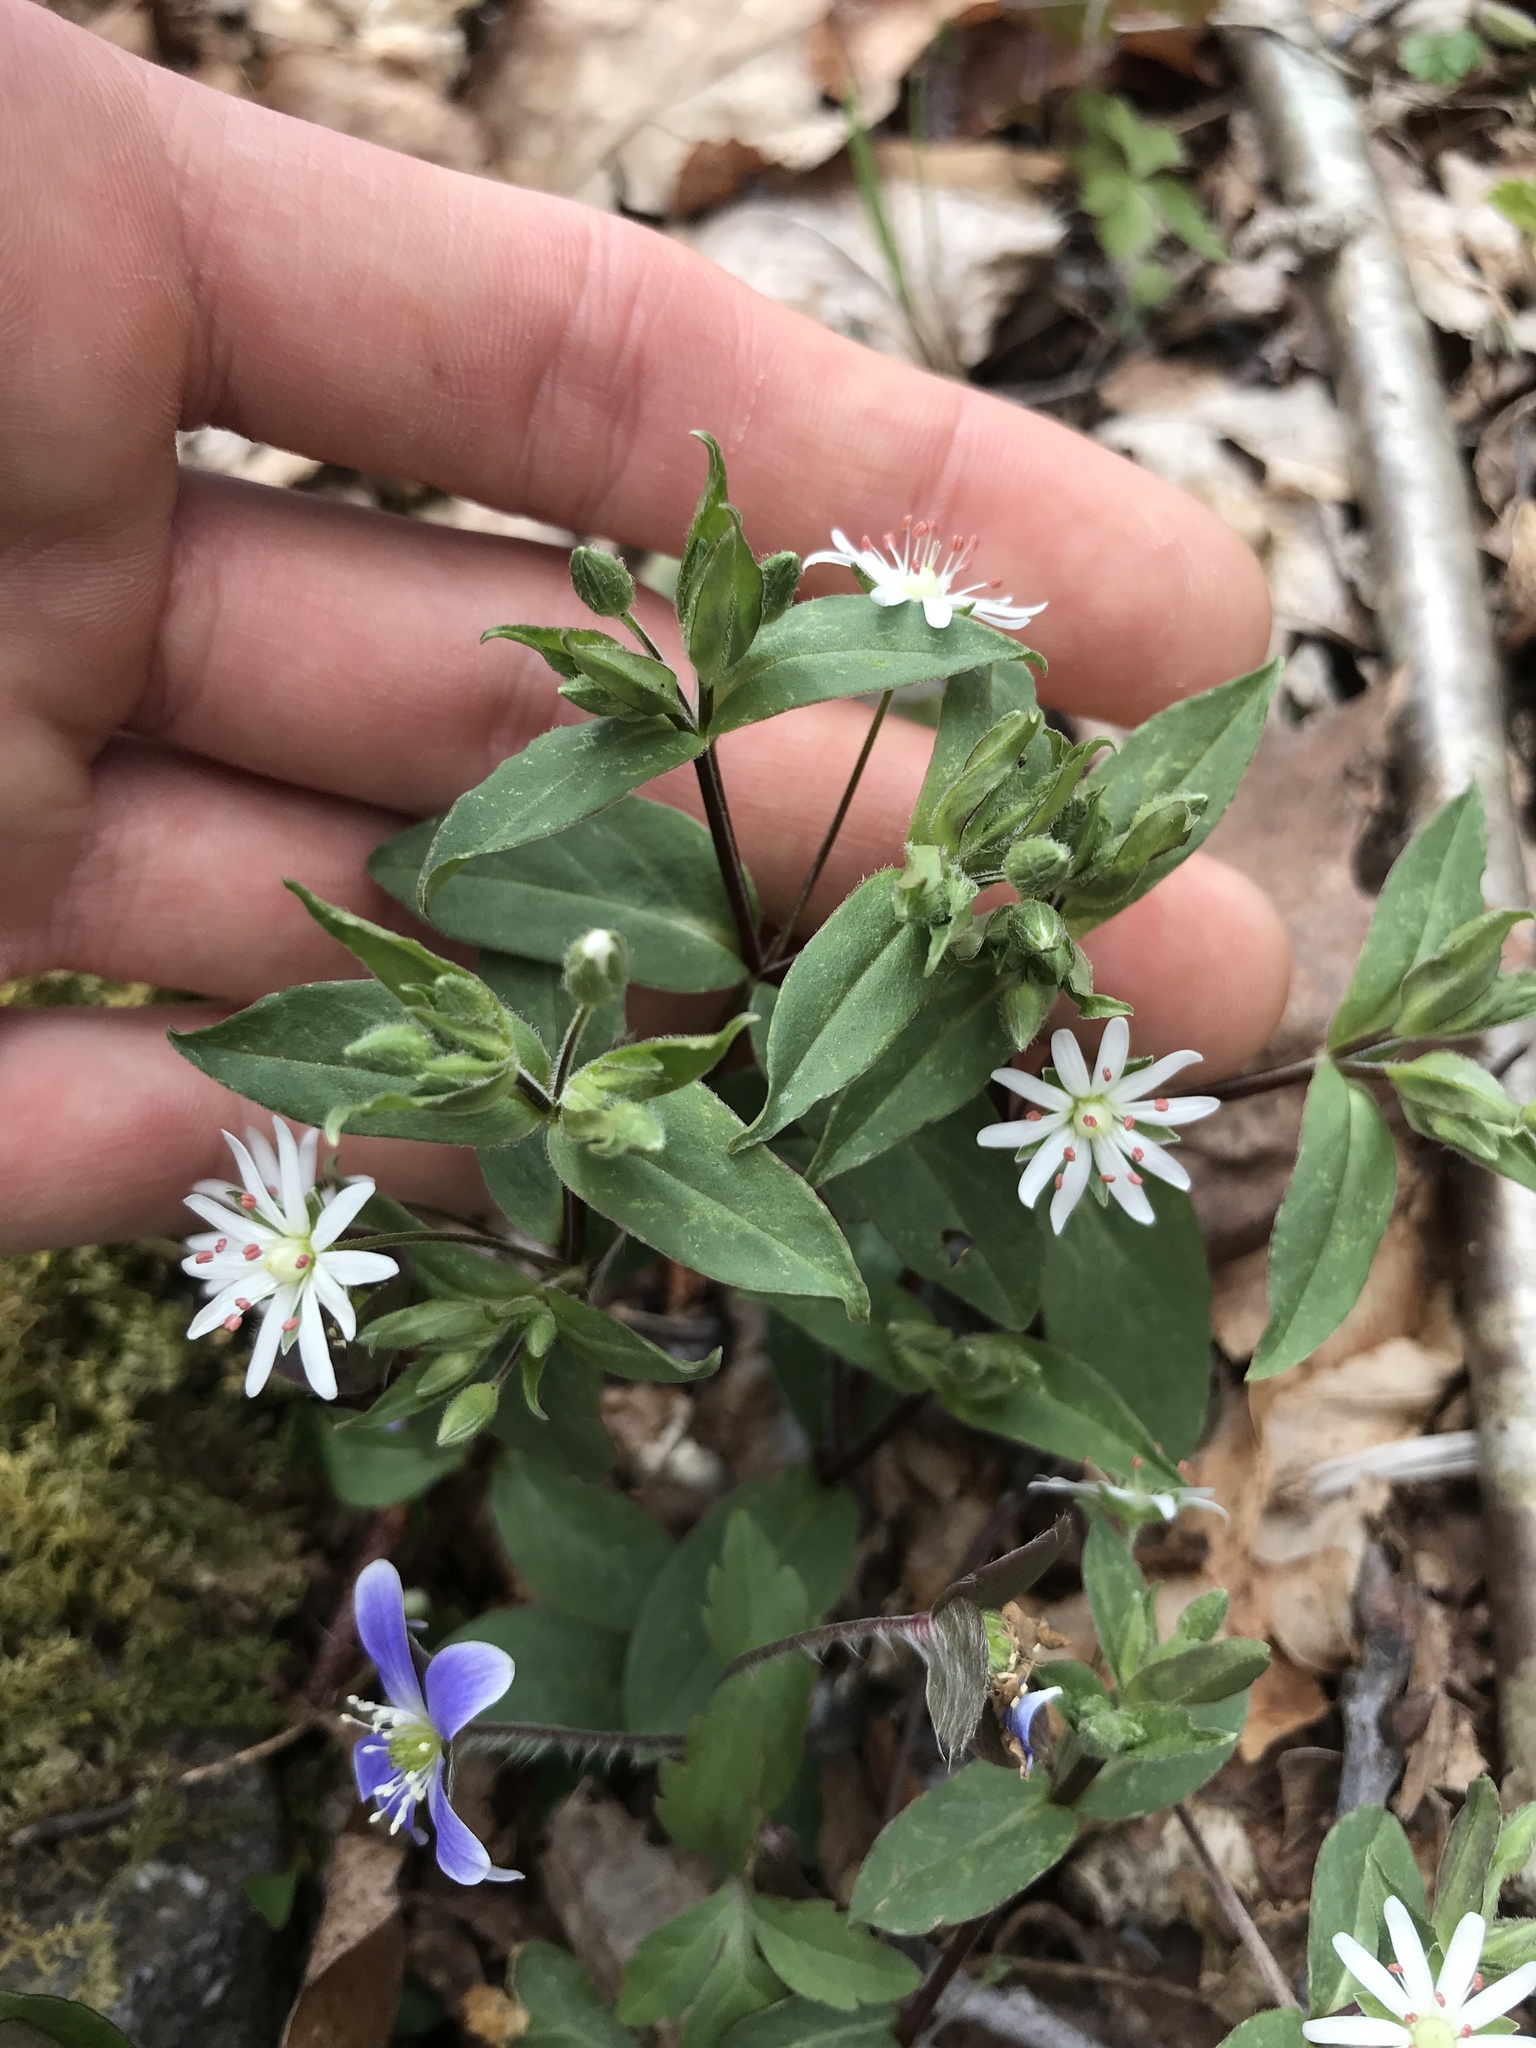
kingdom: Plantae
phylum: Tracheophyta
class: Magnoliopsida
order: Caryophyllales
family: Caryophyllaceae
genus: Stellaria
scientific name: Stellaria pubera
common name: Star chickweed
